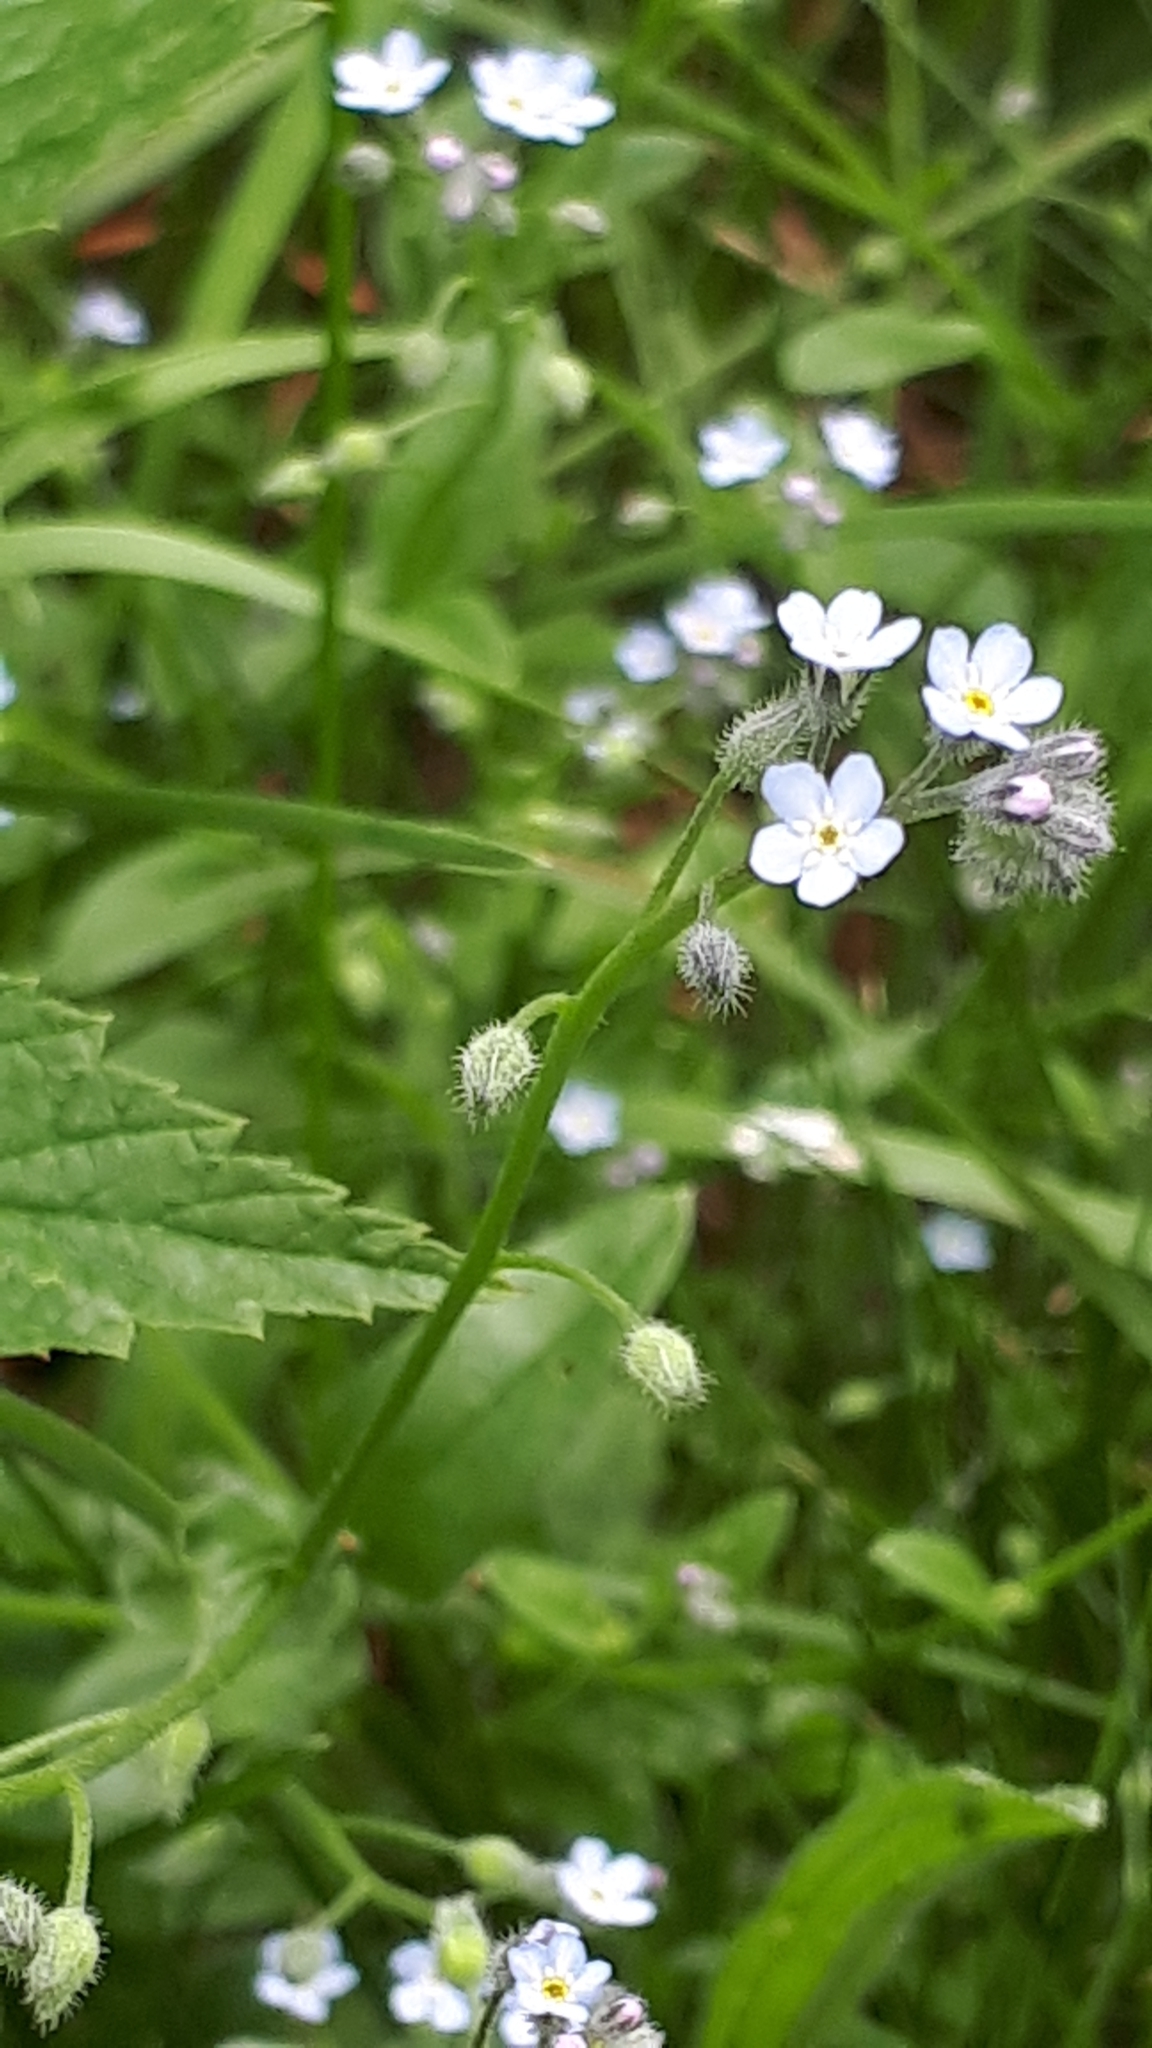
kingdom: Plantae
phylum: Tracheophyta
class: Magnoliopsida
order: Boraginales
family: Boraginaceae
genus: Myosotis
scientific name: Myosotis arvensis
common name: Field forget-me-not
